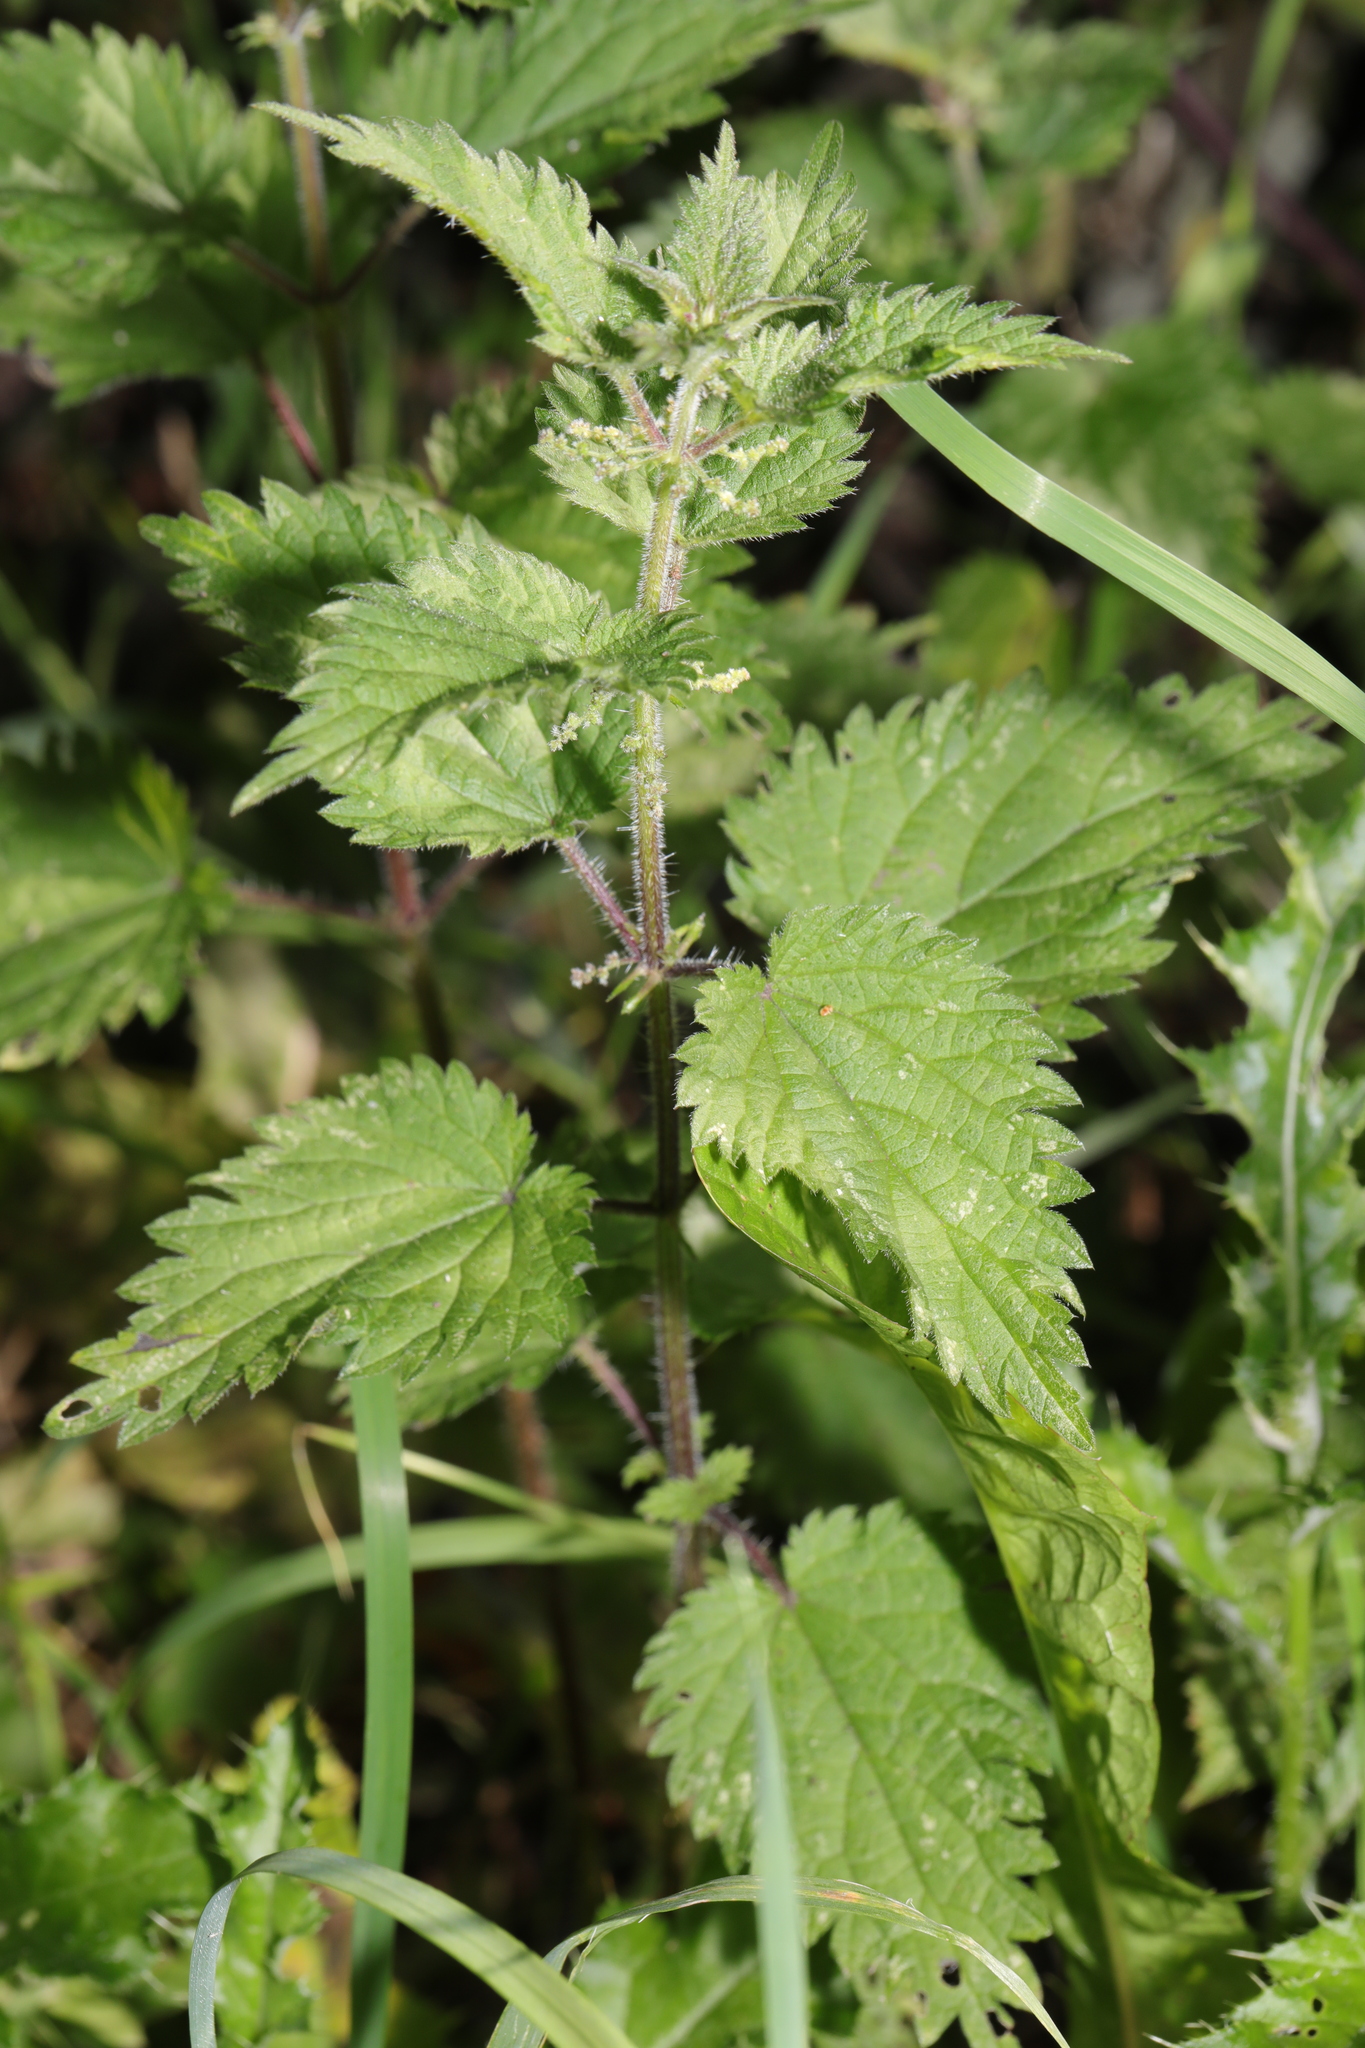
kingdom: Plantae
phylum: Tracheophyta
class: Magnoliopsida
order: Rosales
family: Urticaceae
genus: Urtica
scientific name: Urtica dioica
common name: Common nettle
